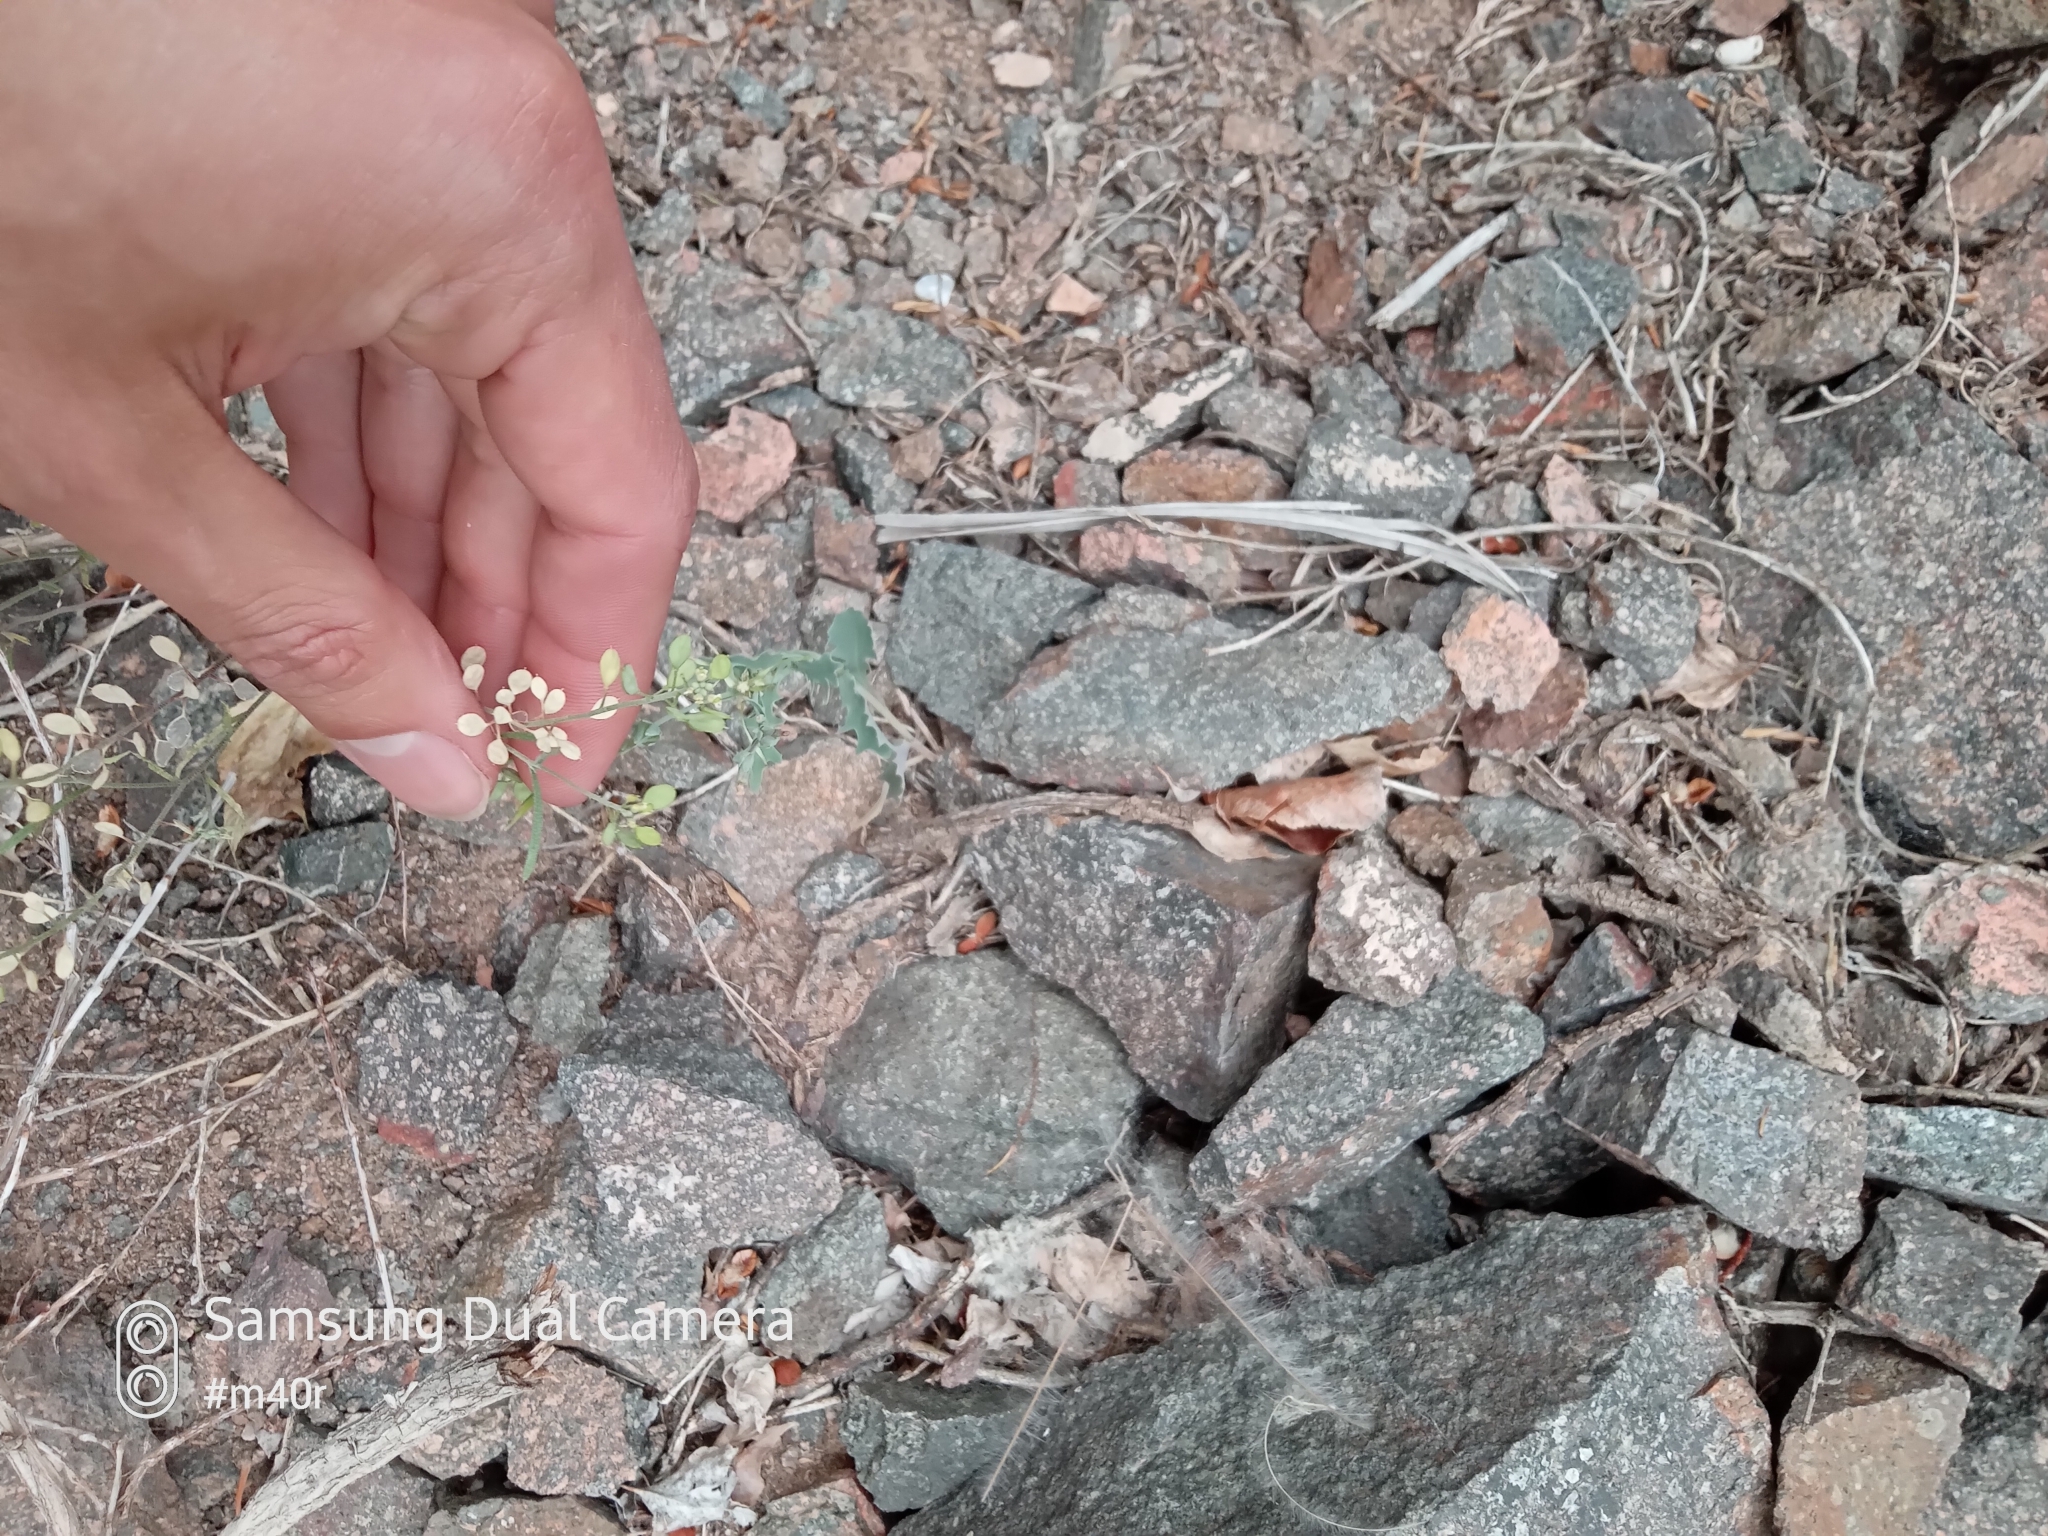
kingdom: Plantae
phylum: Tracheophyta
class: Magnoliopsida
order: Brassicales
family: Brassicaceae
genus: Meniocus
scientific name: Meniocus linifolius
